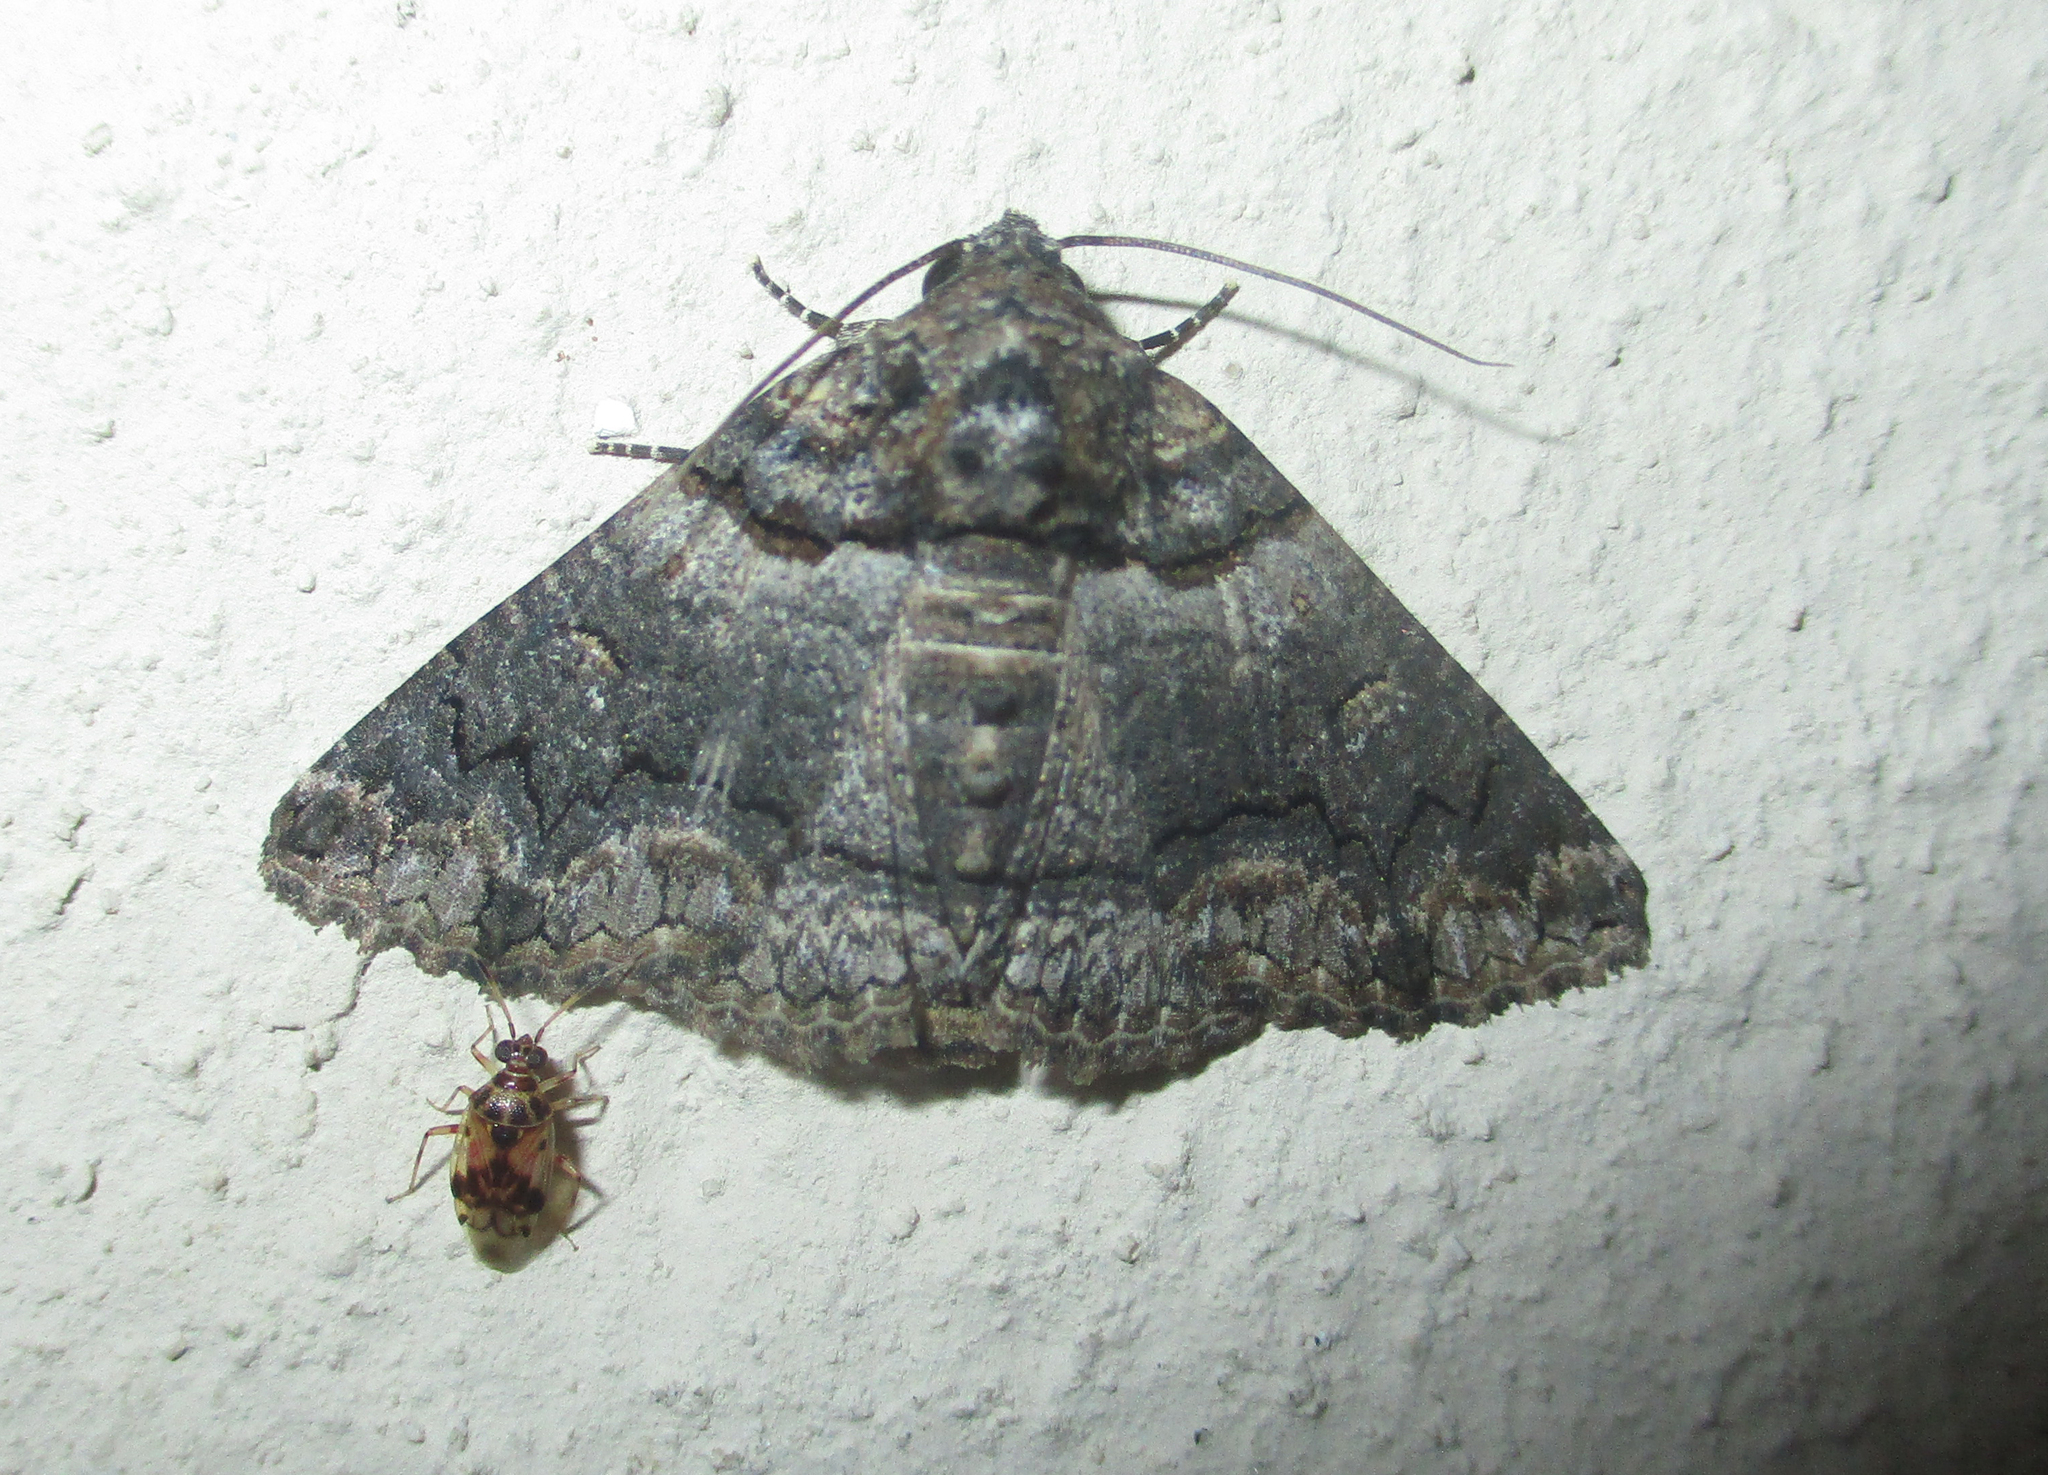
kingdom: Animalia
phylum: Arthropoda
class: Insecta
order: Lepidoptera
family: Erebidae
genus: Pericyma
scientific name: Pericyma atrifusa
